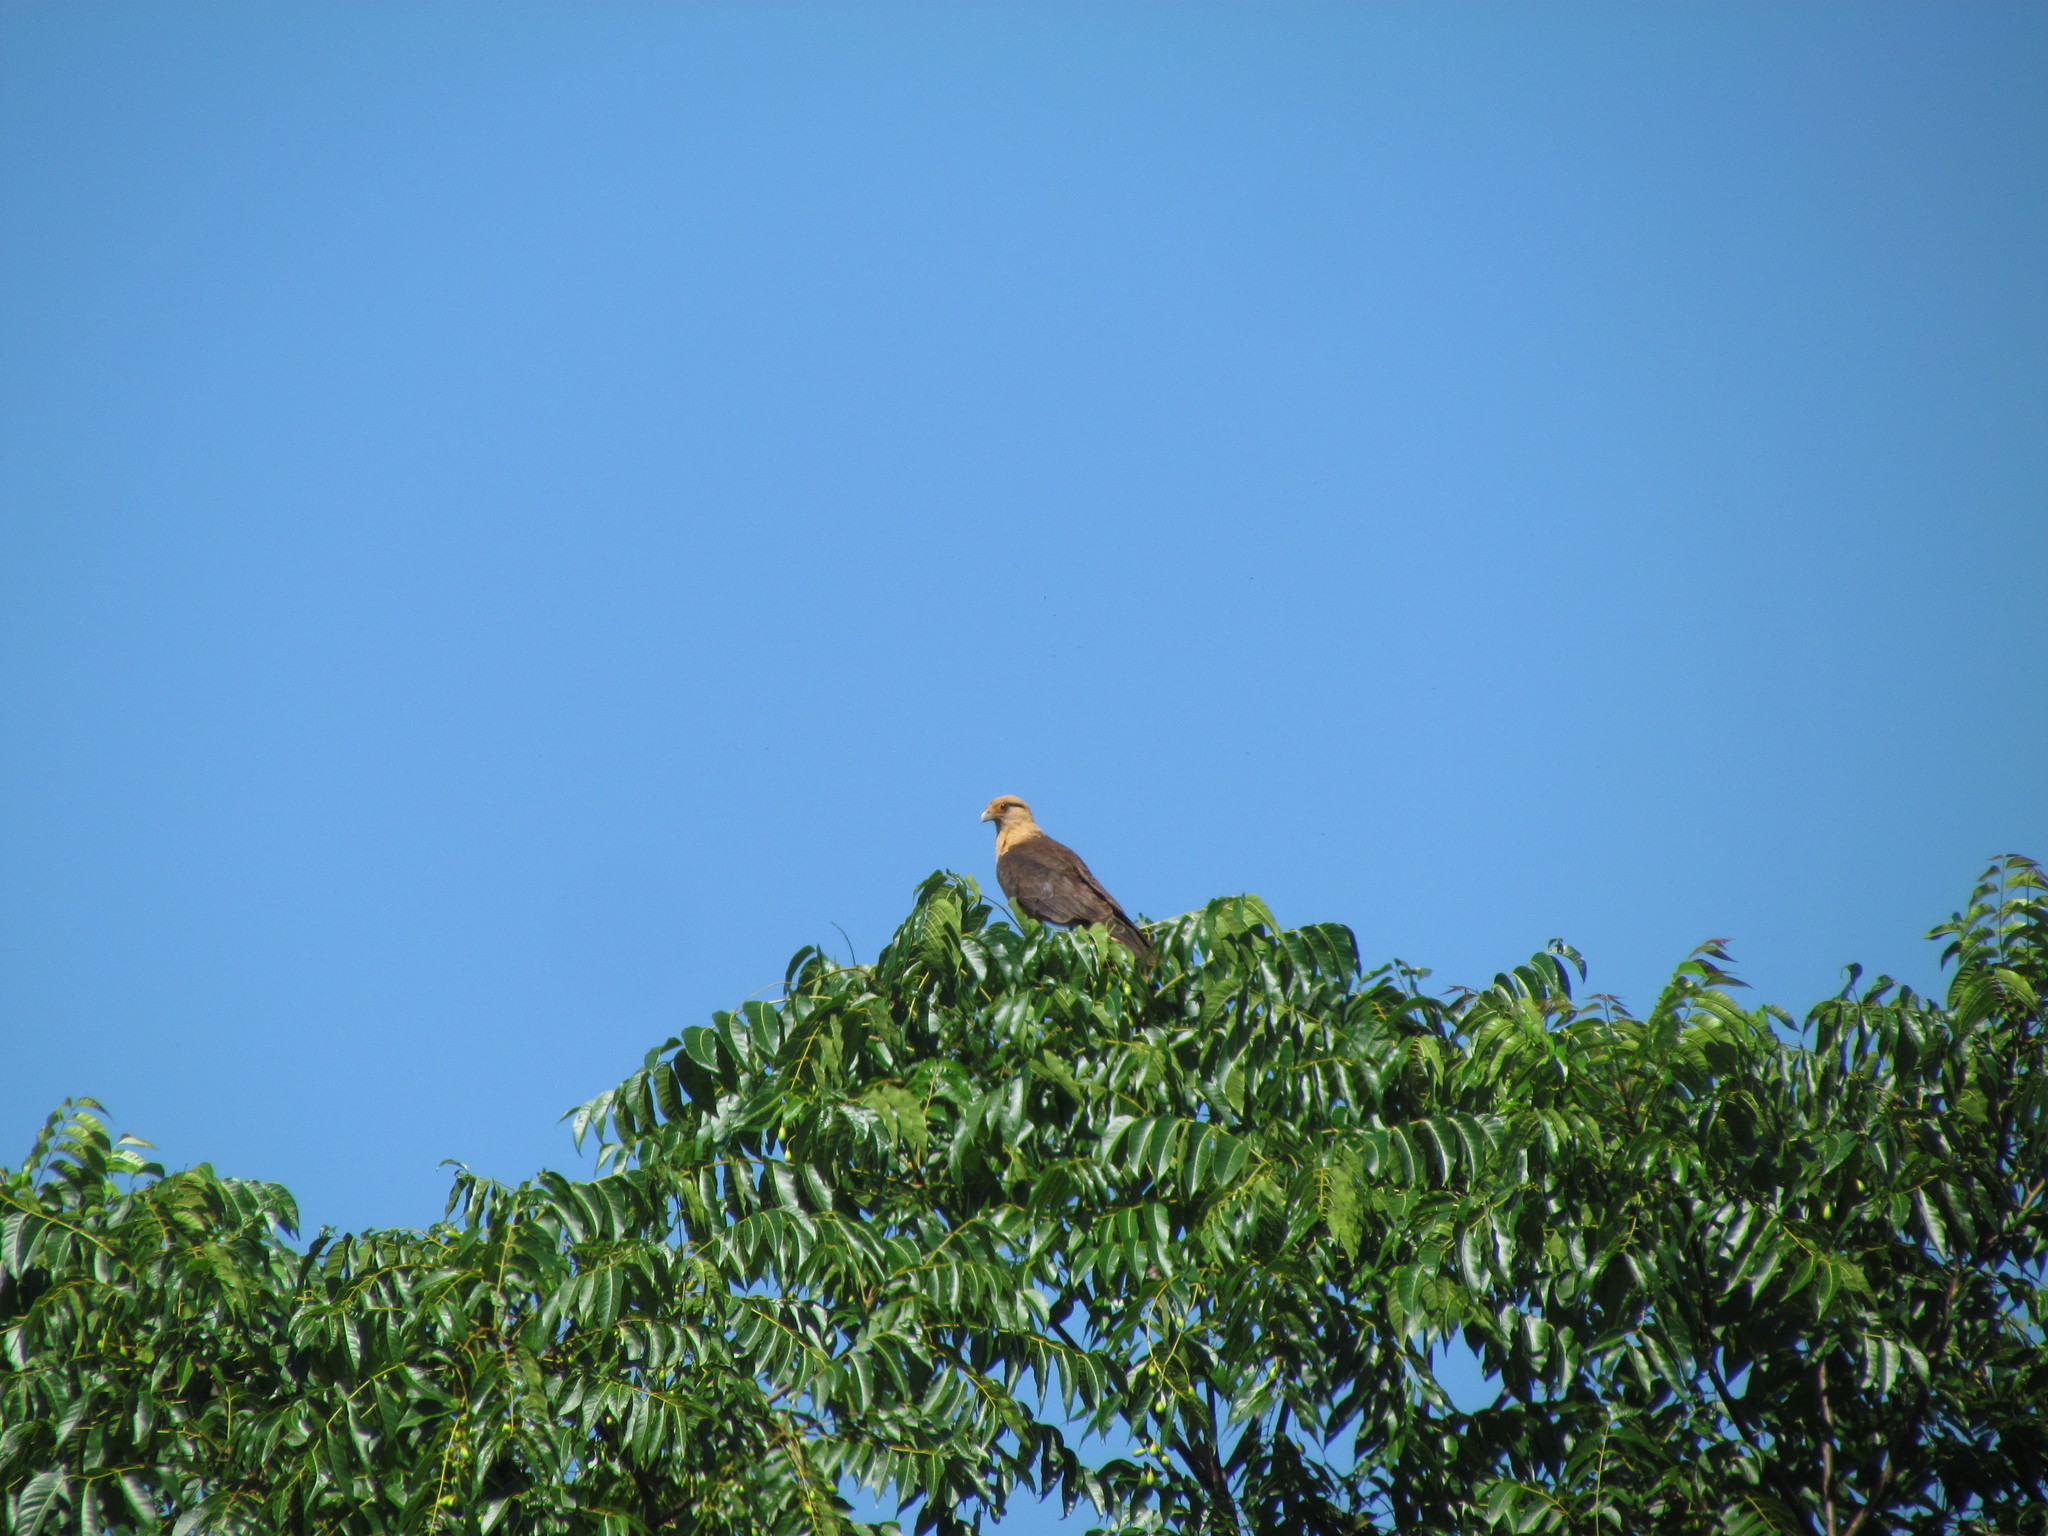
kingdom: Animalia
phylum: Chordata
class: Aves
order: Falconiformes
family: Falconidae
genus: Daptrius
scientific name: Daptrius
